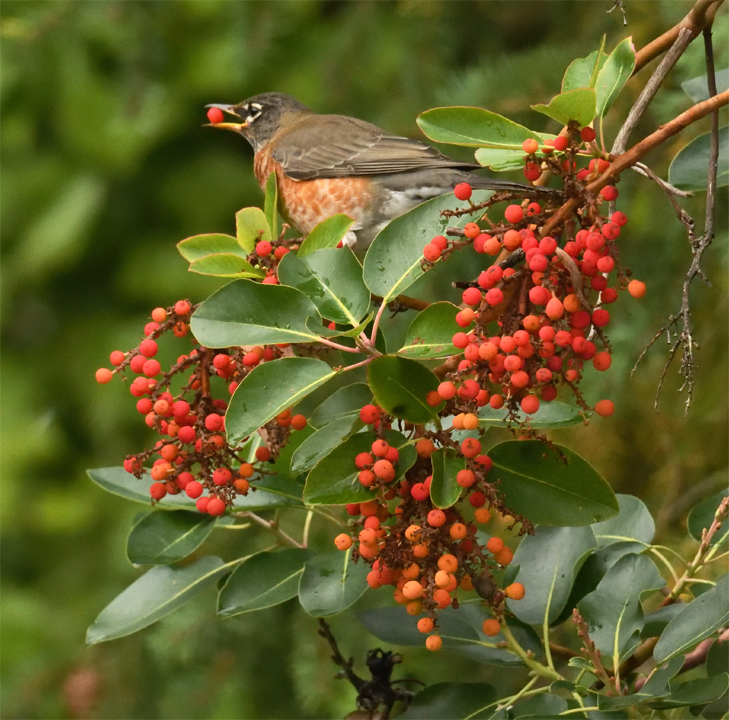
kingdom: Animalia
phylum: Chordata
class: Aves
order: Passeriformes
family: Turdidae
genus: Turdus
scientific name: Turdus migratorius
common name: American robin
